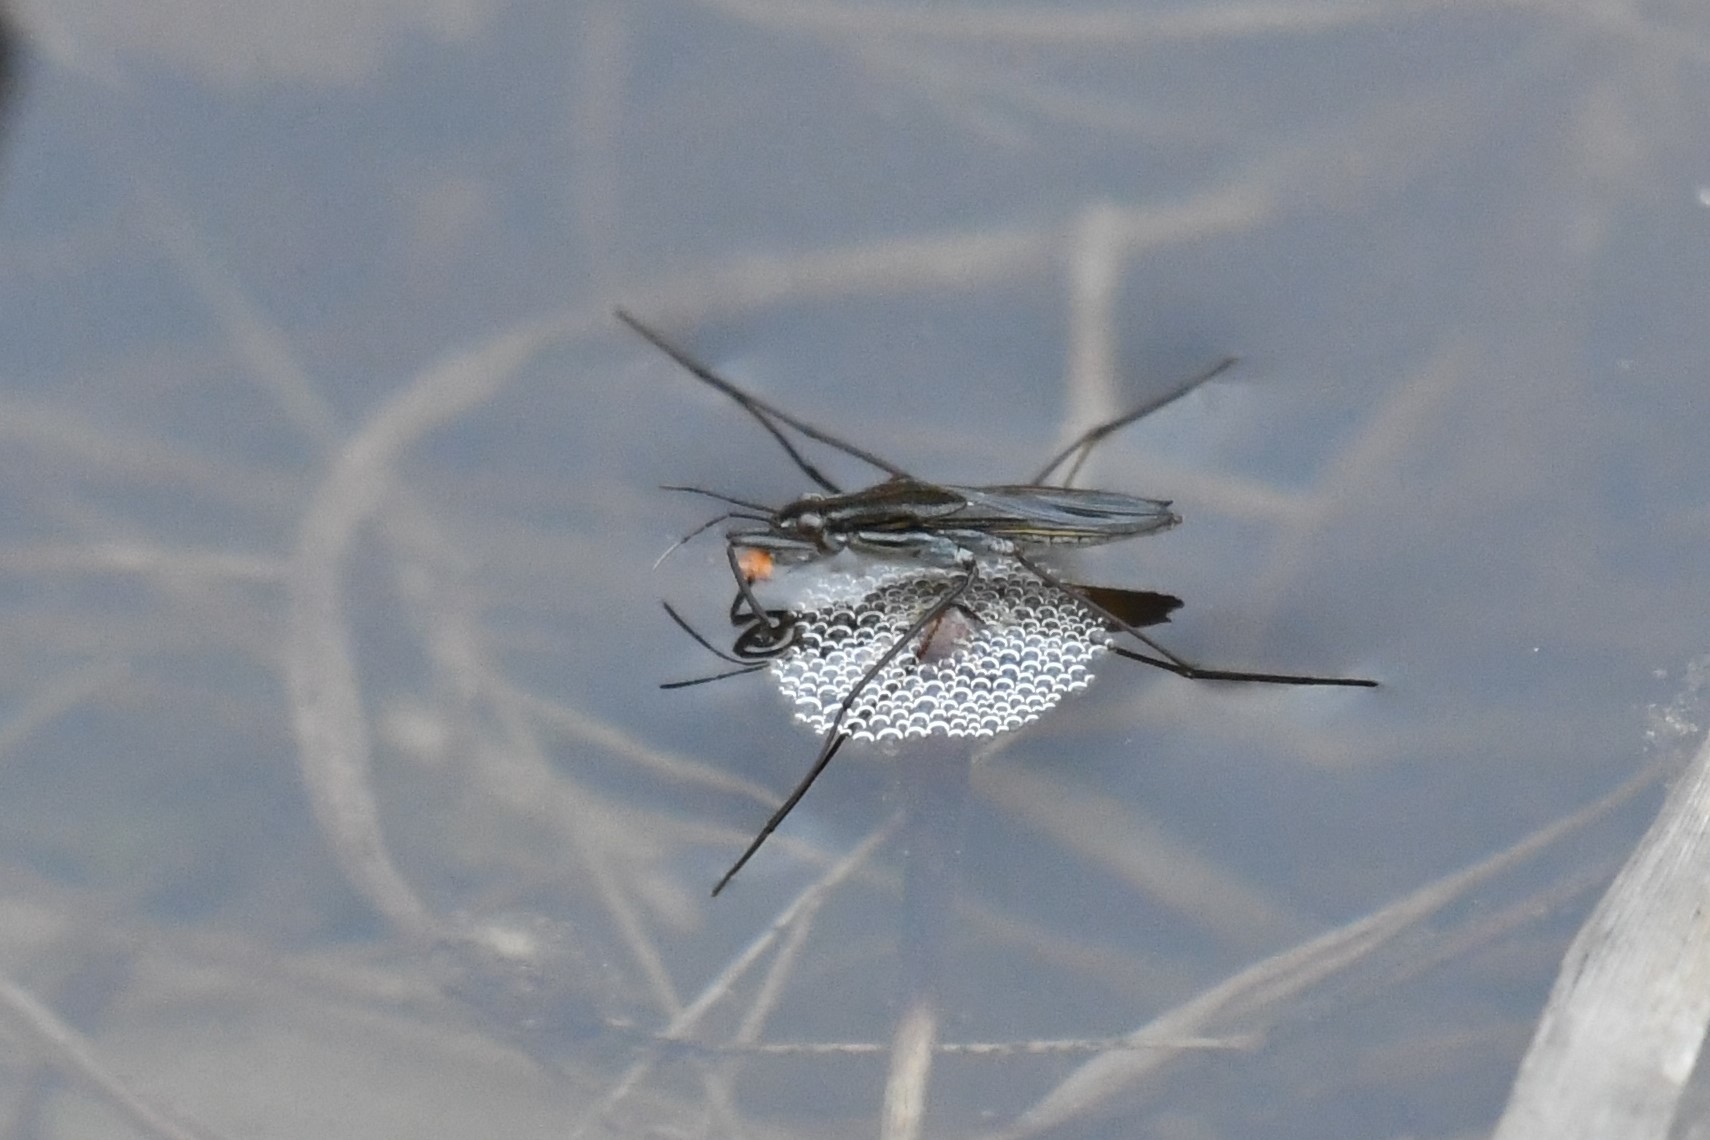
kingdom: Animalia
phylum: Arthropoda
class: Insecta
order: Hemiptera
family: Gerridae
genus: Gerris
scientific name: Gerris
